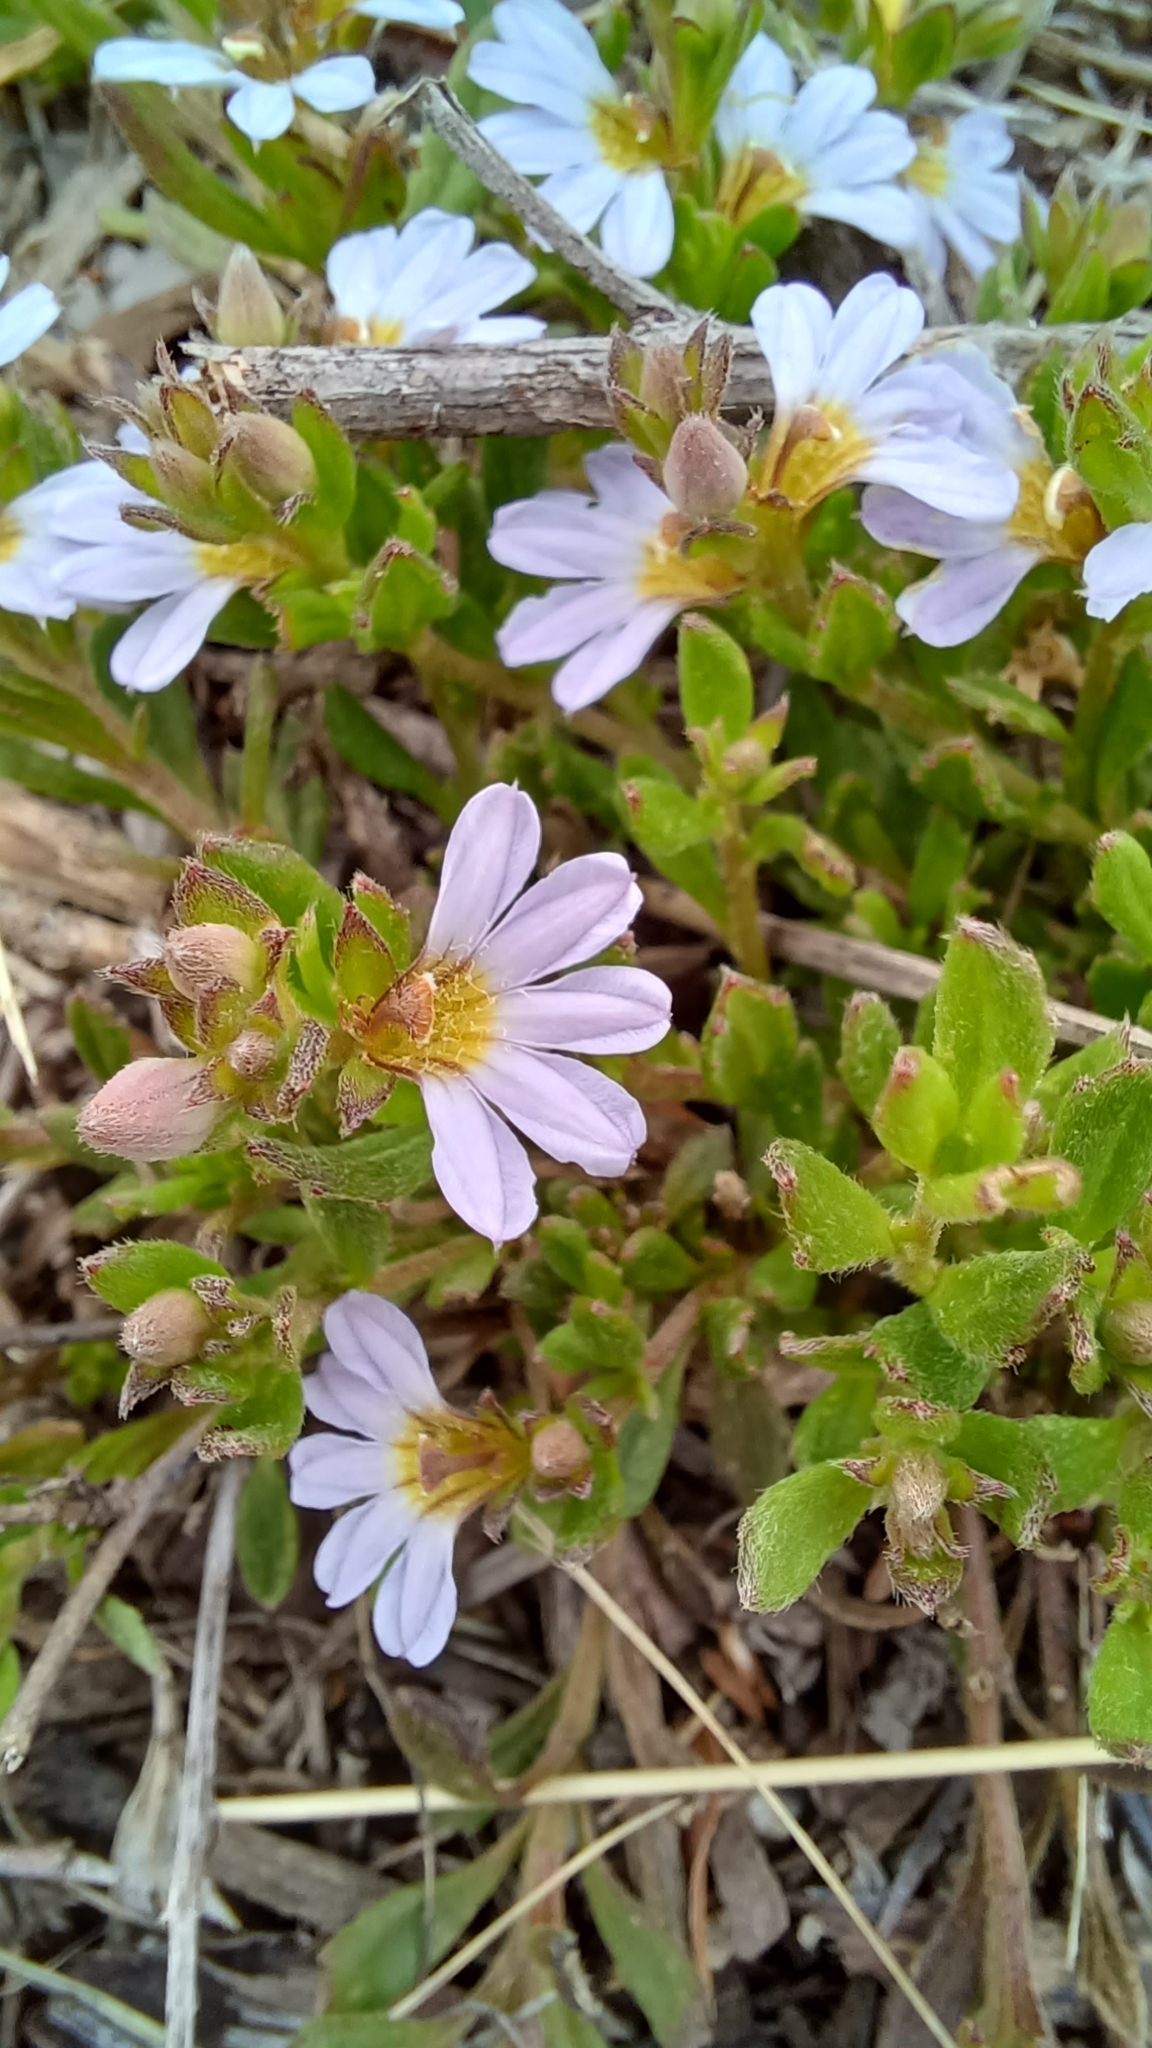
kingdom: Plantae
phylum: Tracheophyta
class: Magnoliopsida
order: Asterales
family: Goodeniaceae
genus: Scaevola
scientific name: Scaevola albida
